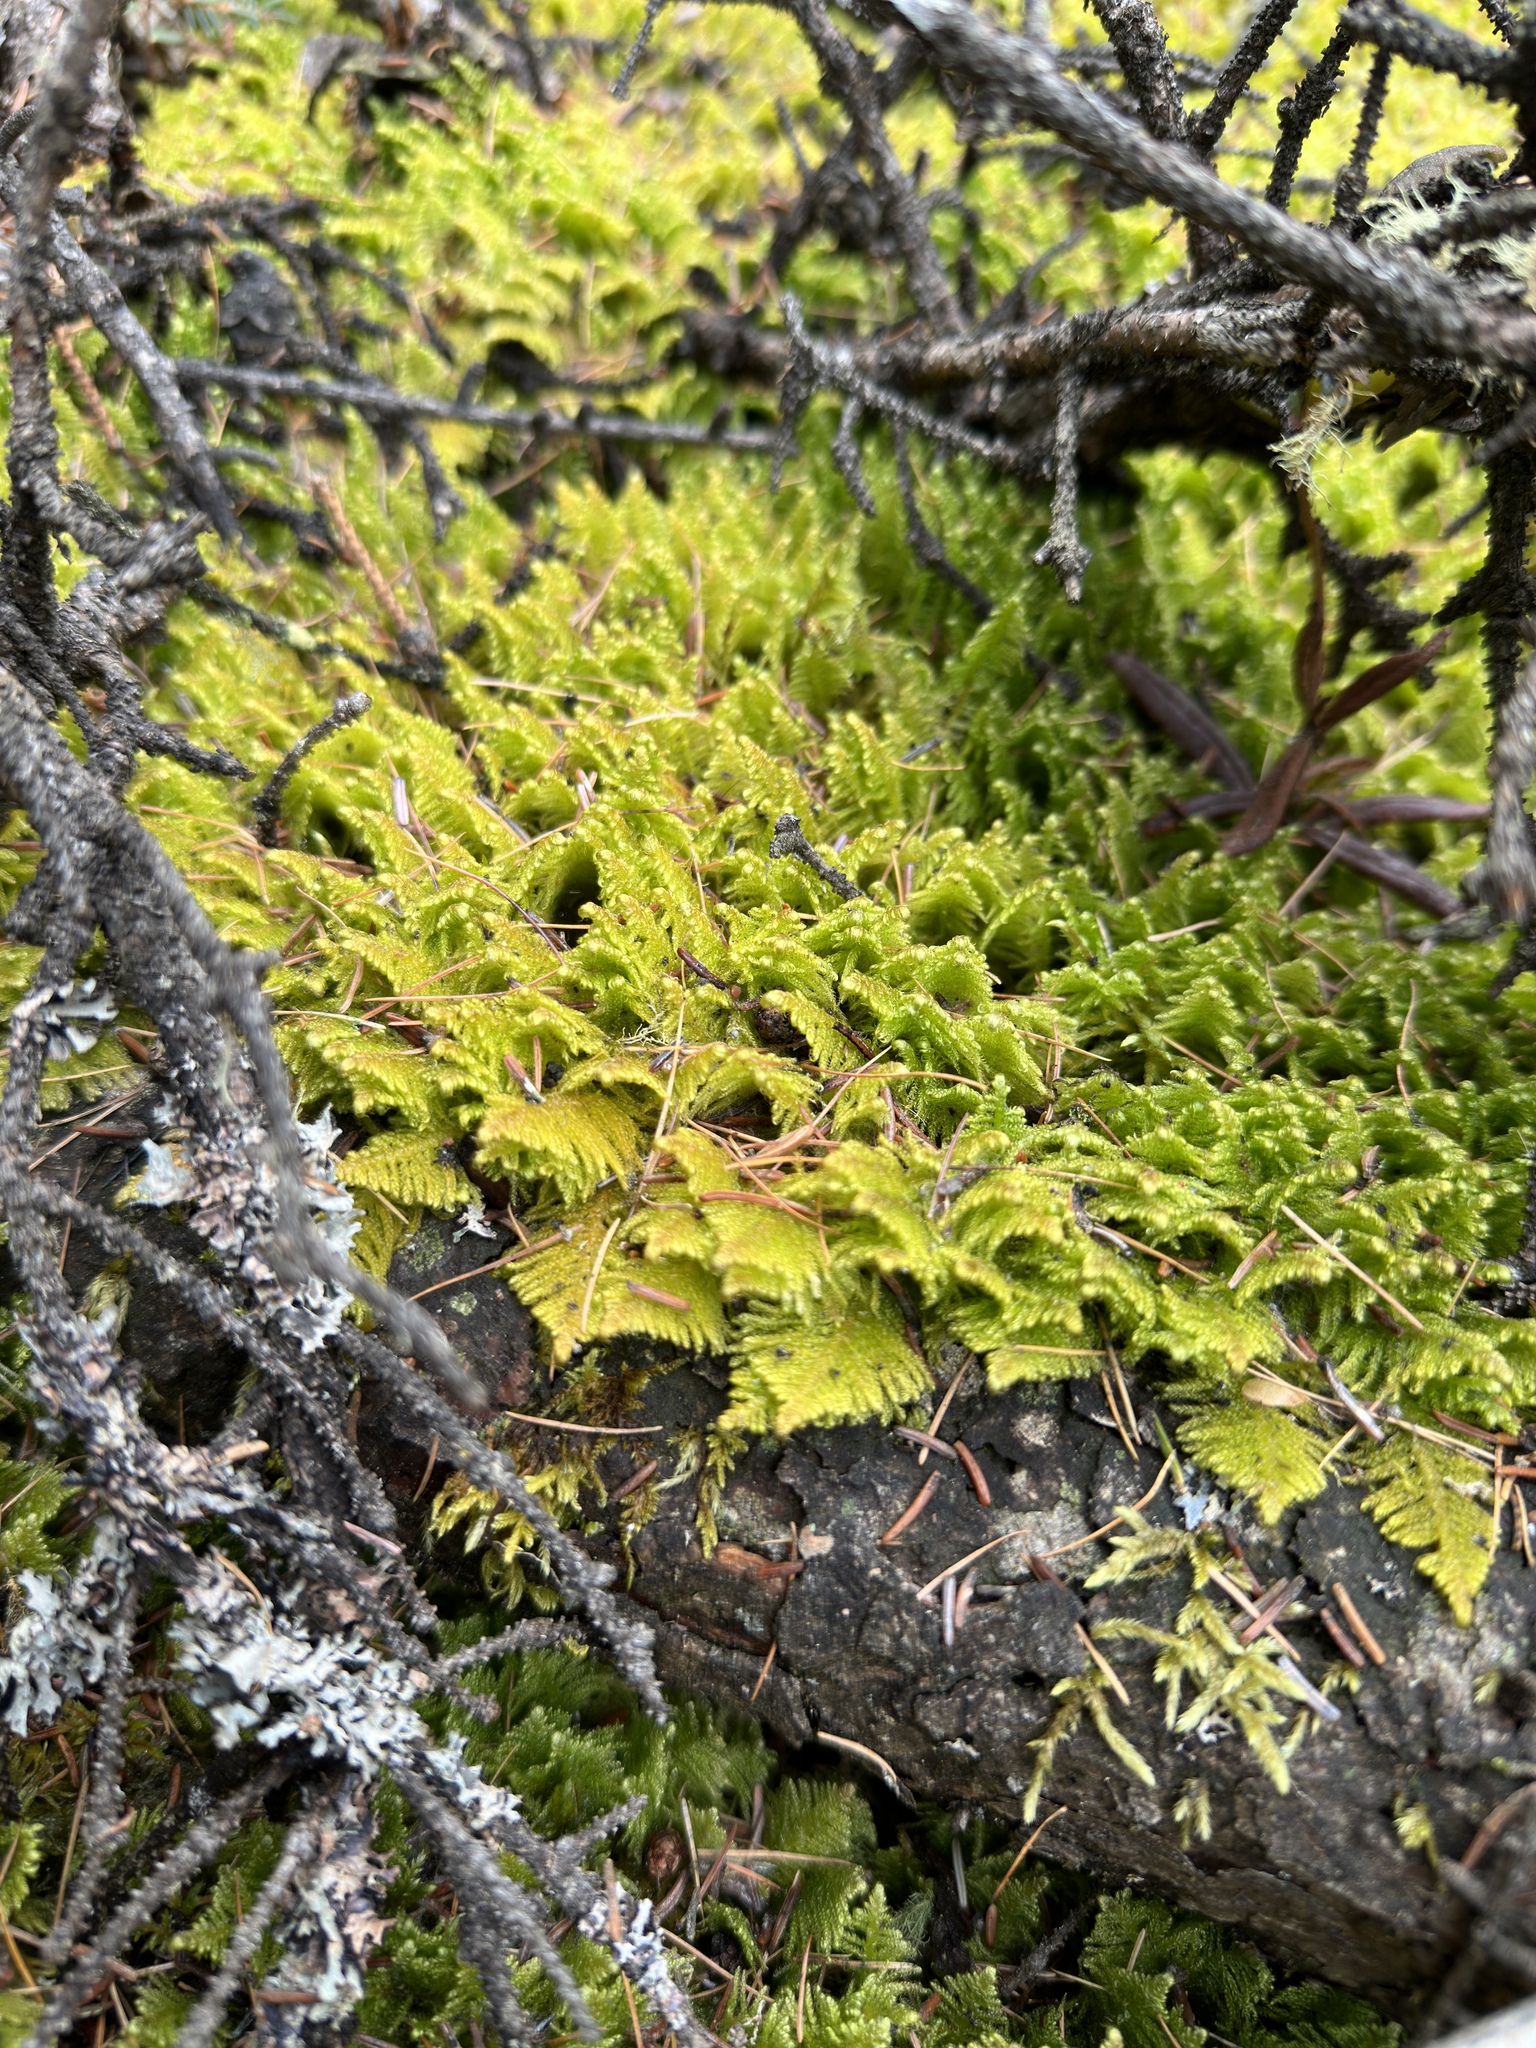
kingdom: Plantae
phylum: Bryophyta
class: Bryopsida
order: Hypnales
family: Pylaisiaceae
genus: Ptilium
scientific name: Ptilium crista-castrensis
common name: Knight's plume moss
